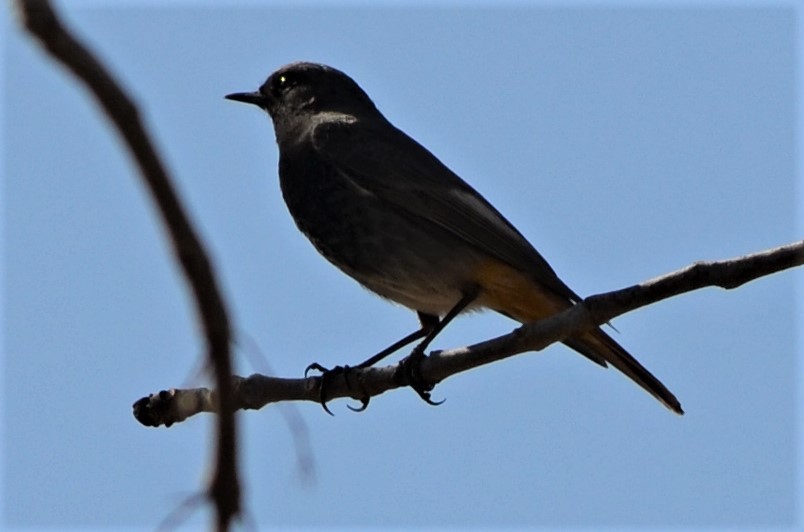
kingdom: Animalia
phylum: Chordata
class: Aves
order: Passeriformes
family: Muscicapidae
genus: Phoenicurus
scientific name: Phoenicurus ochruros
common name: Black redstart
